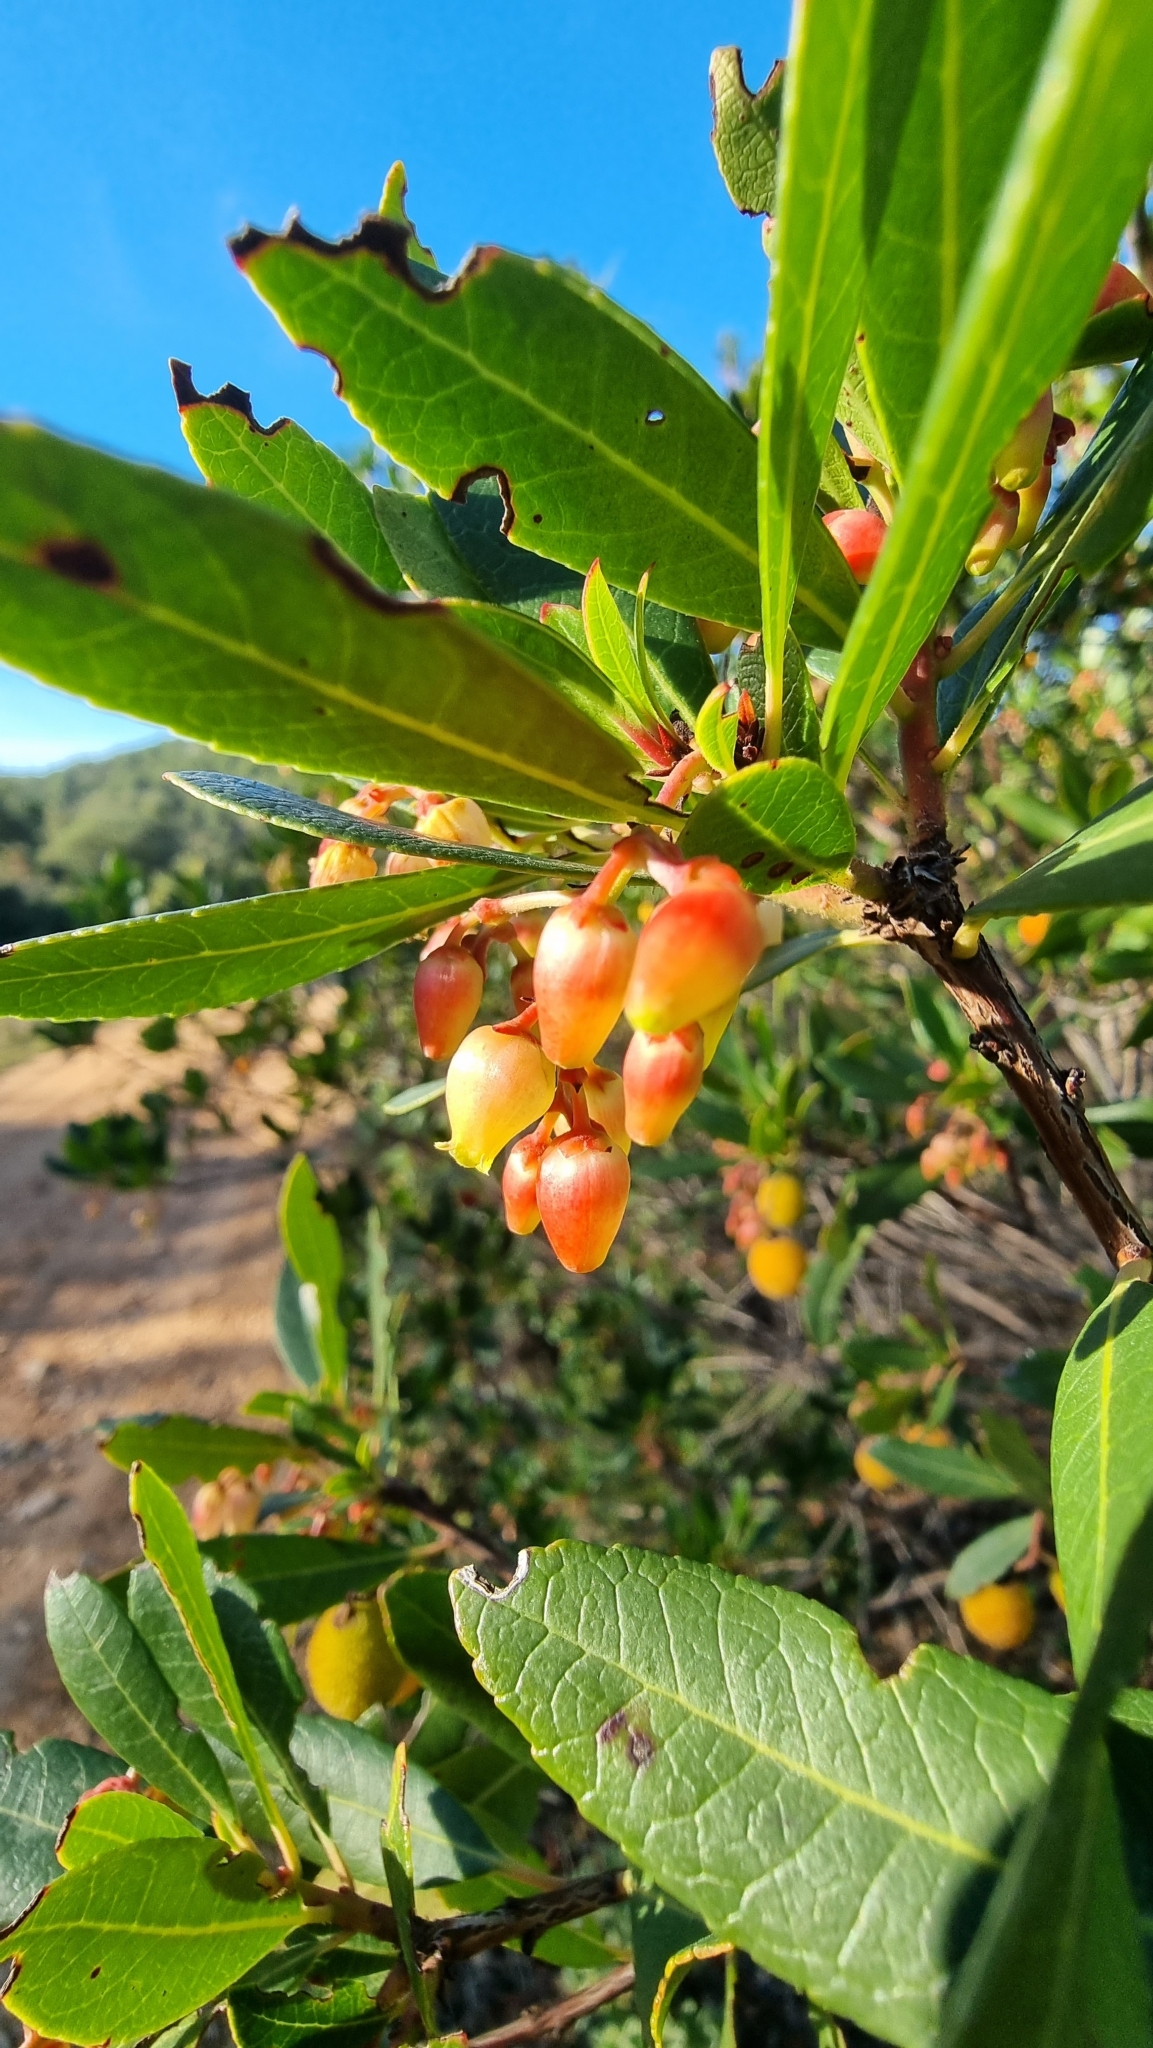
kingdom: Plantae
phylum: Tracheophyta
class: Magnoliopsida
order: Ericales
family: Ericaceae
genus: Arbutus
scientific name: Arbutus unedo
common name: Strawberry-tree
